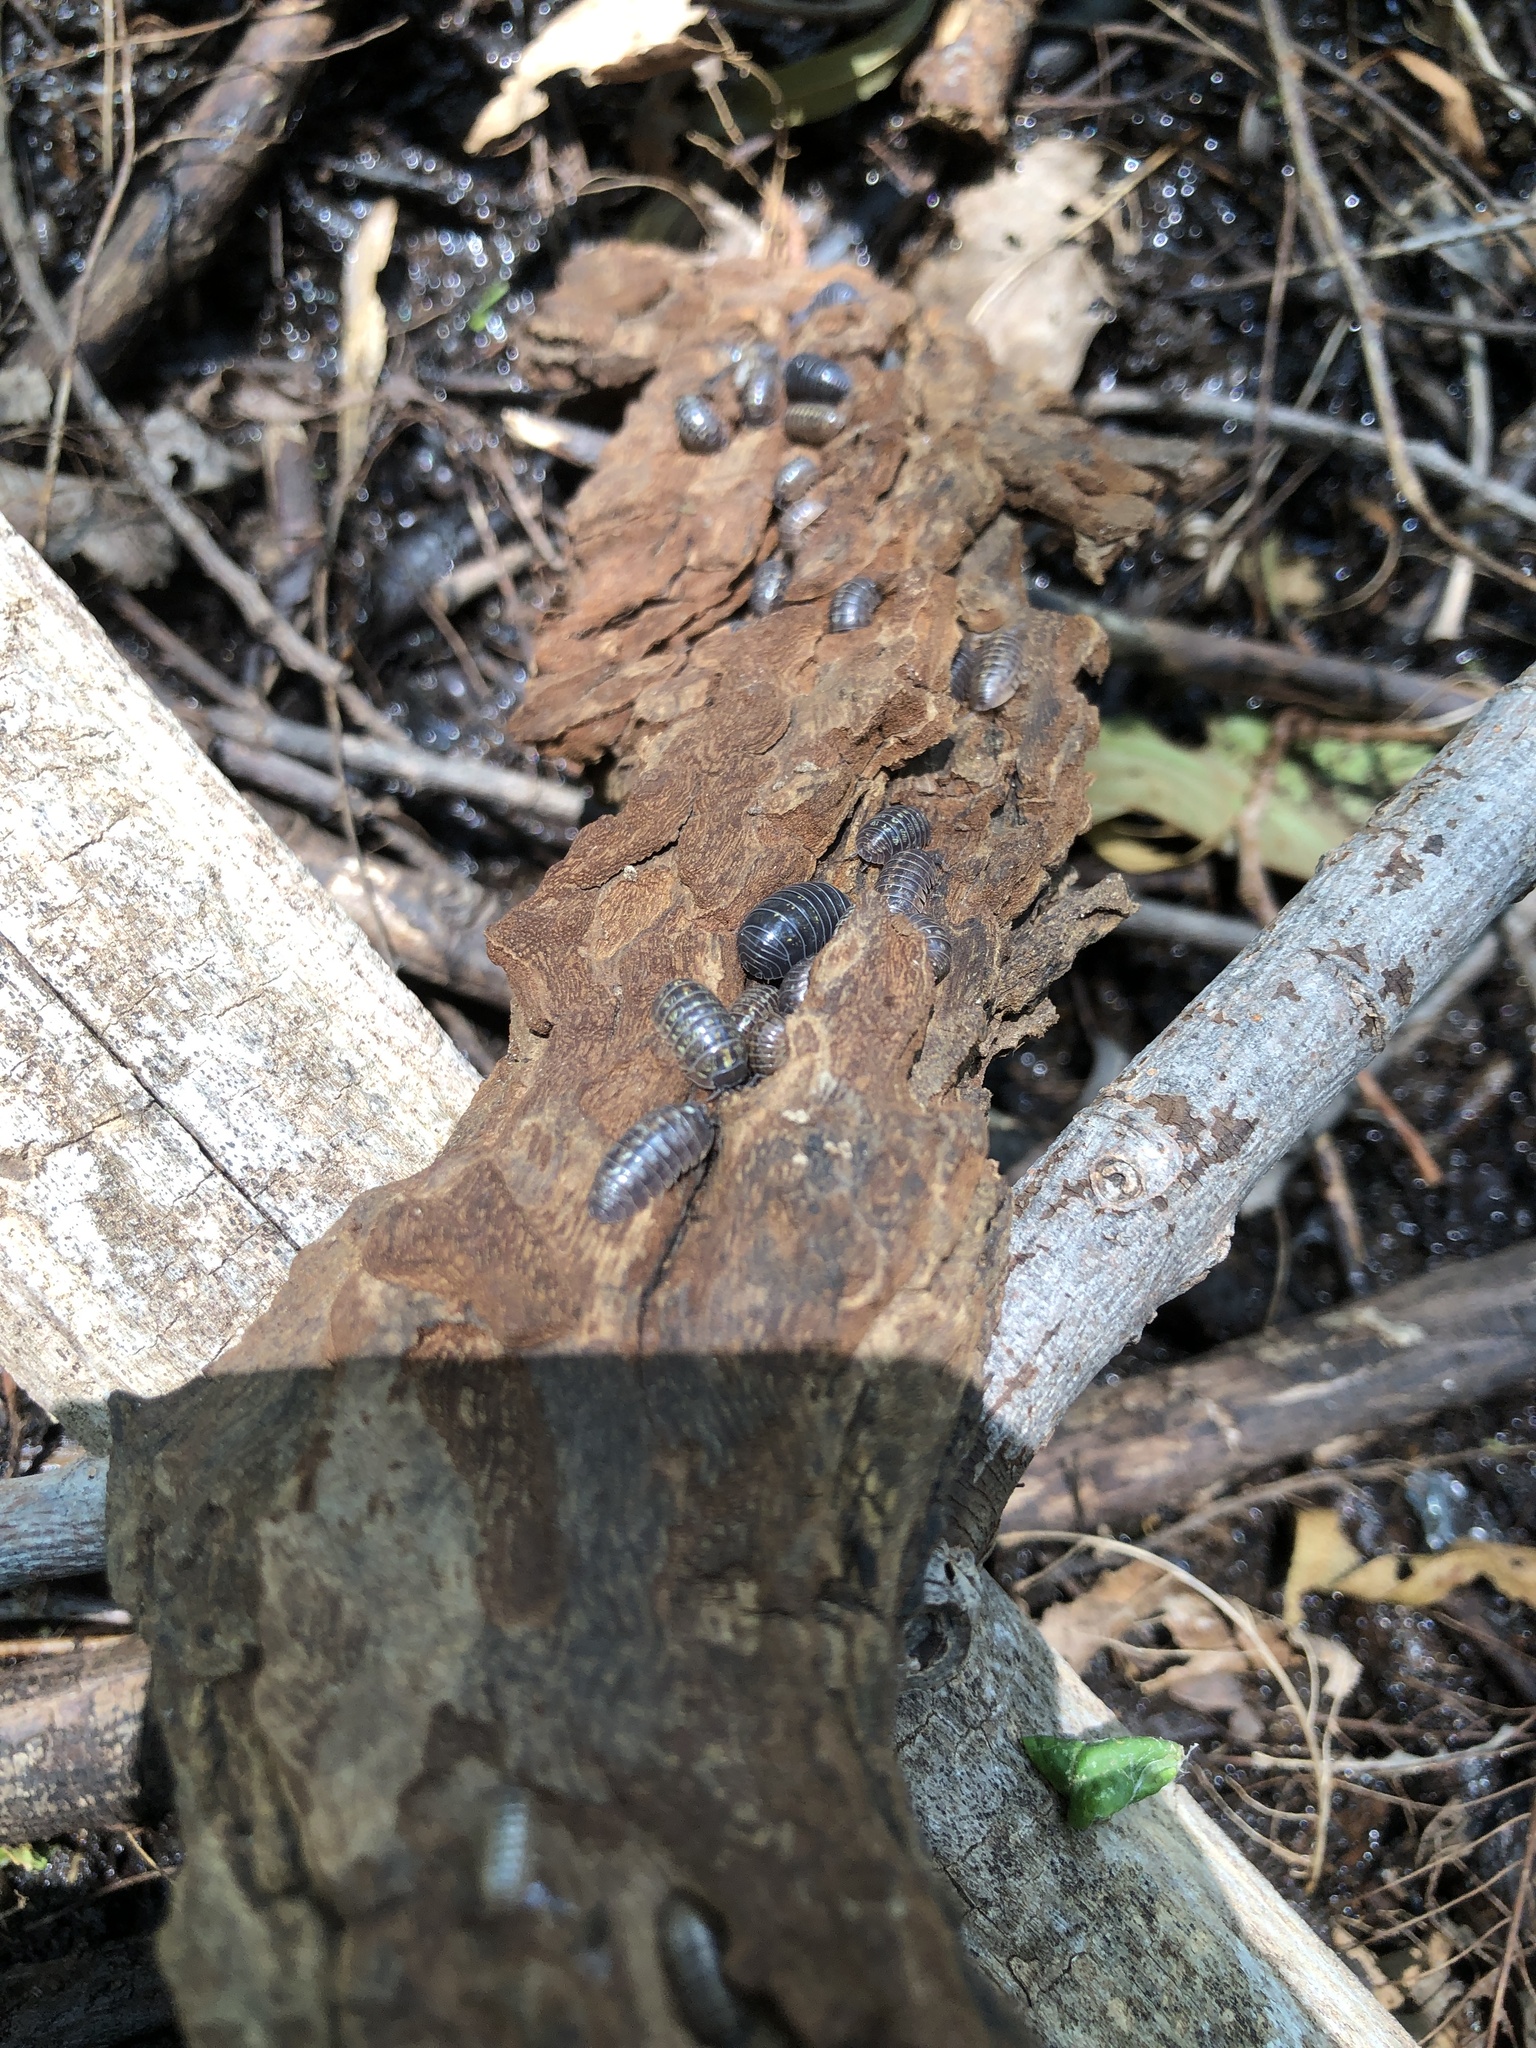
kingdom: Animalia
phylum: Arthropoda
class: Malacostraca
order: Isopoda
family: Armadillidiidae
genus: Armadillidium
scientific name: Armadillidium vulgare
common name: Common pill woodlouse
